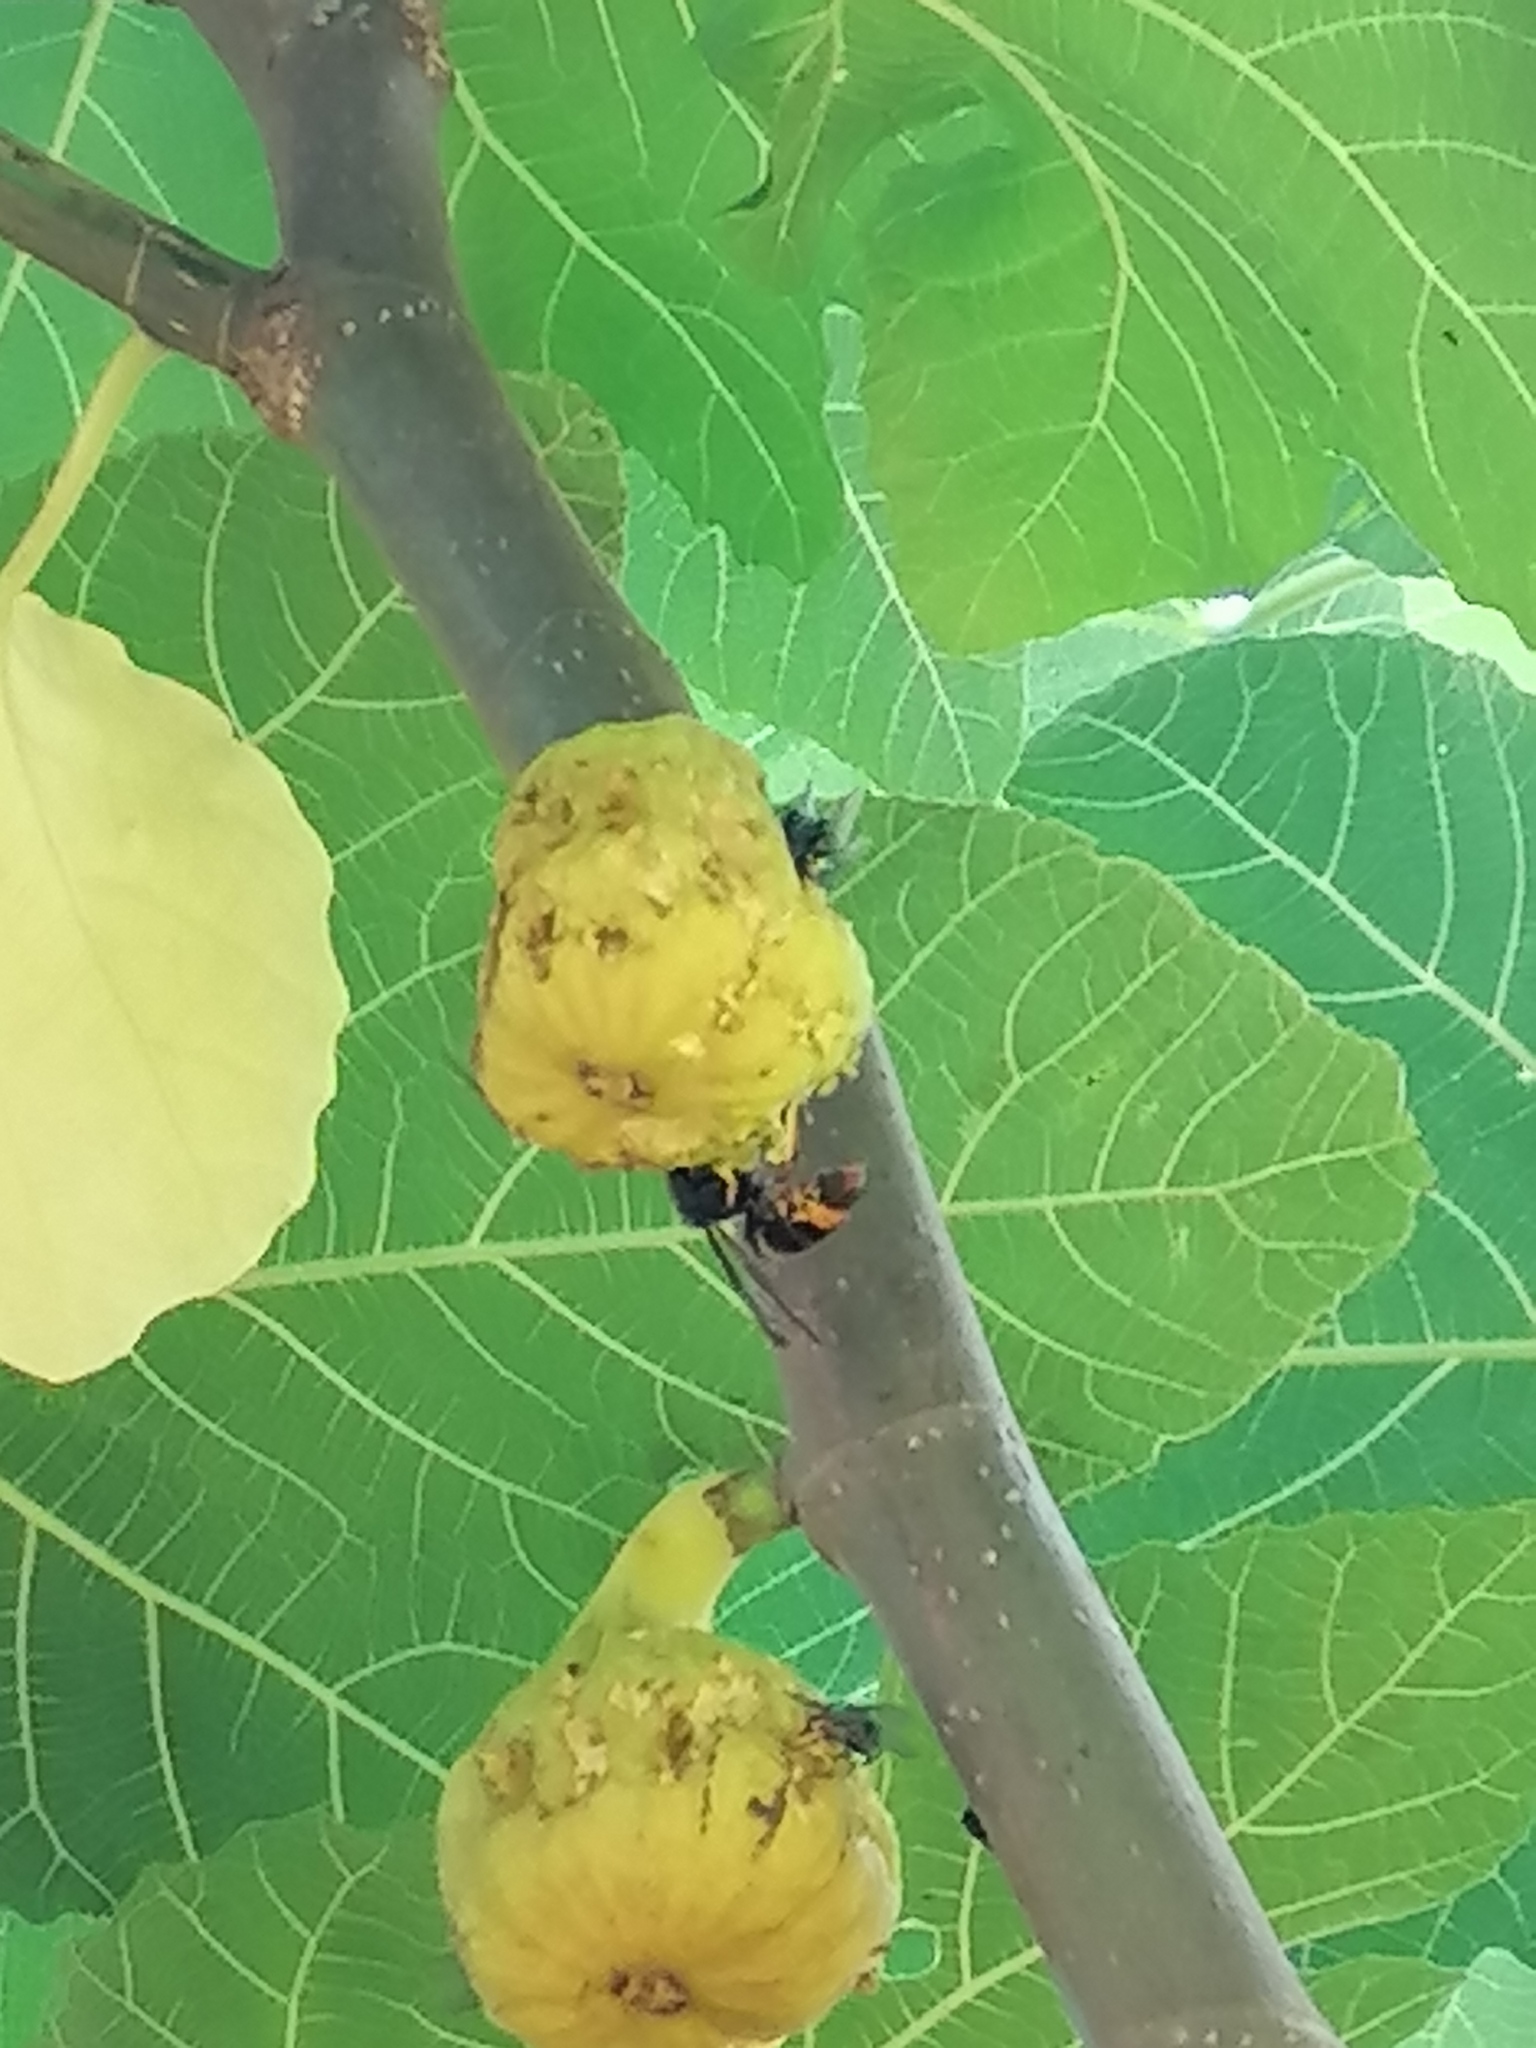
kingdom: Animalia
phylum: Arthropoda
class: Insecta
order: Hymenoptera
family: Vespidae
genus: Vespa
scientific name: Vespa velutina
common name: Asian hornet
